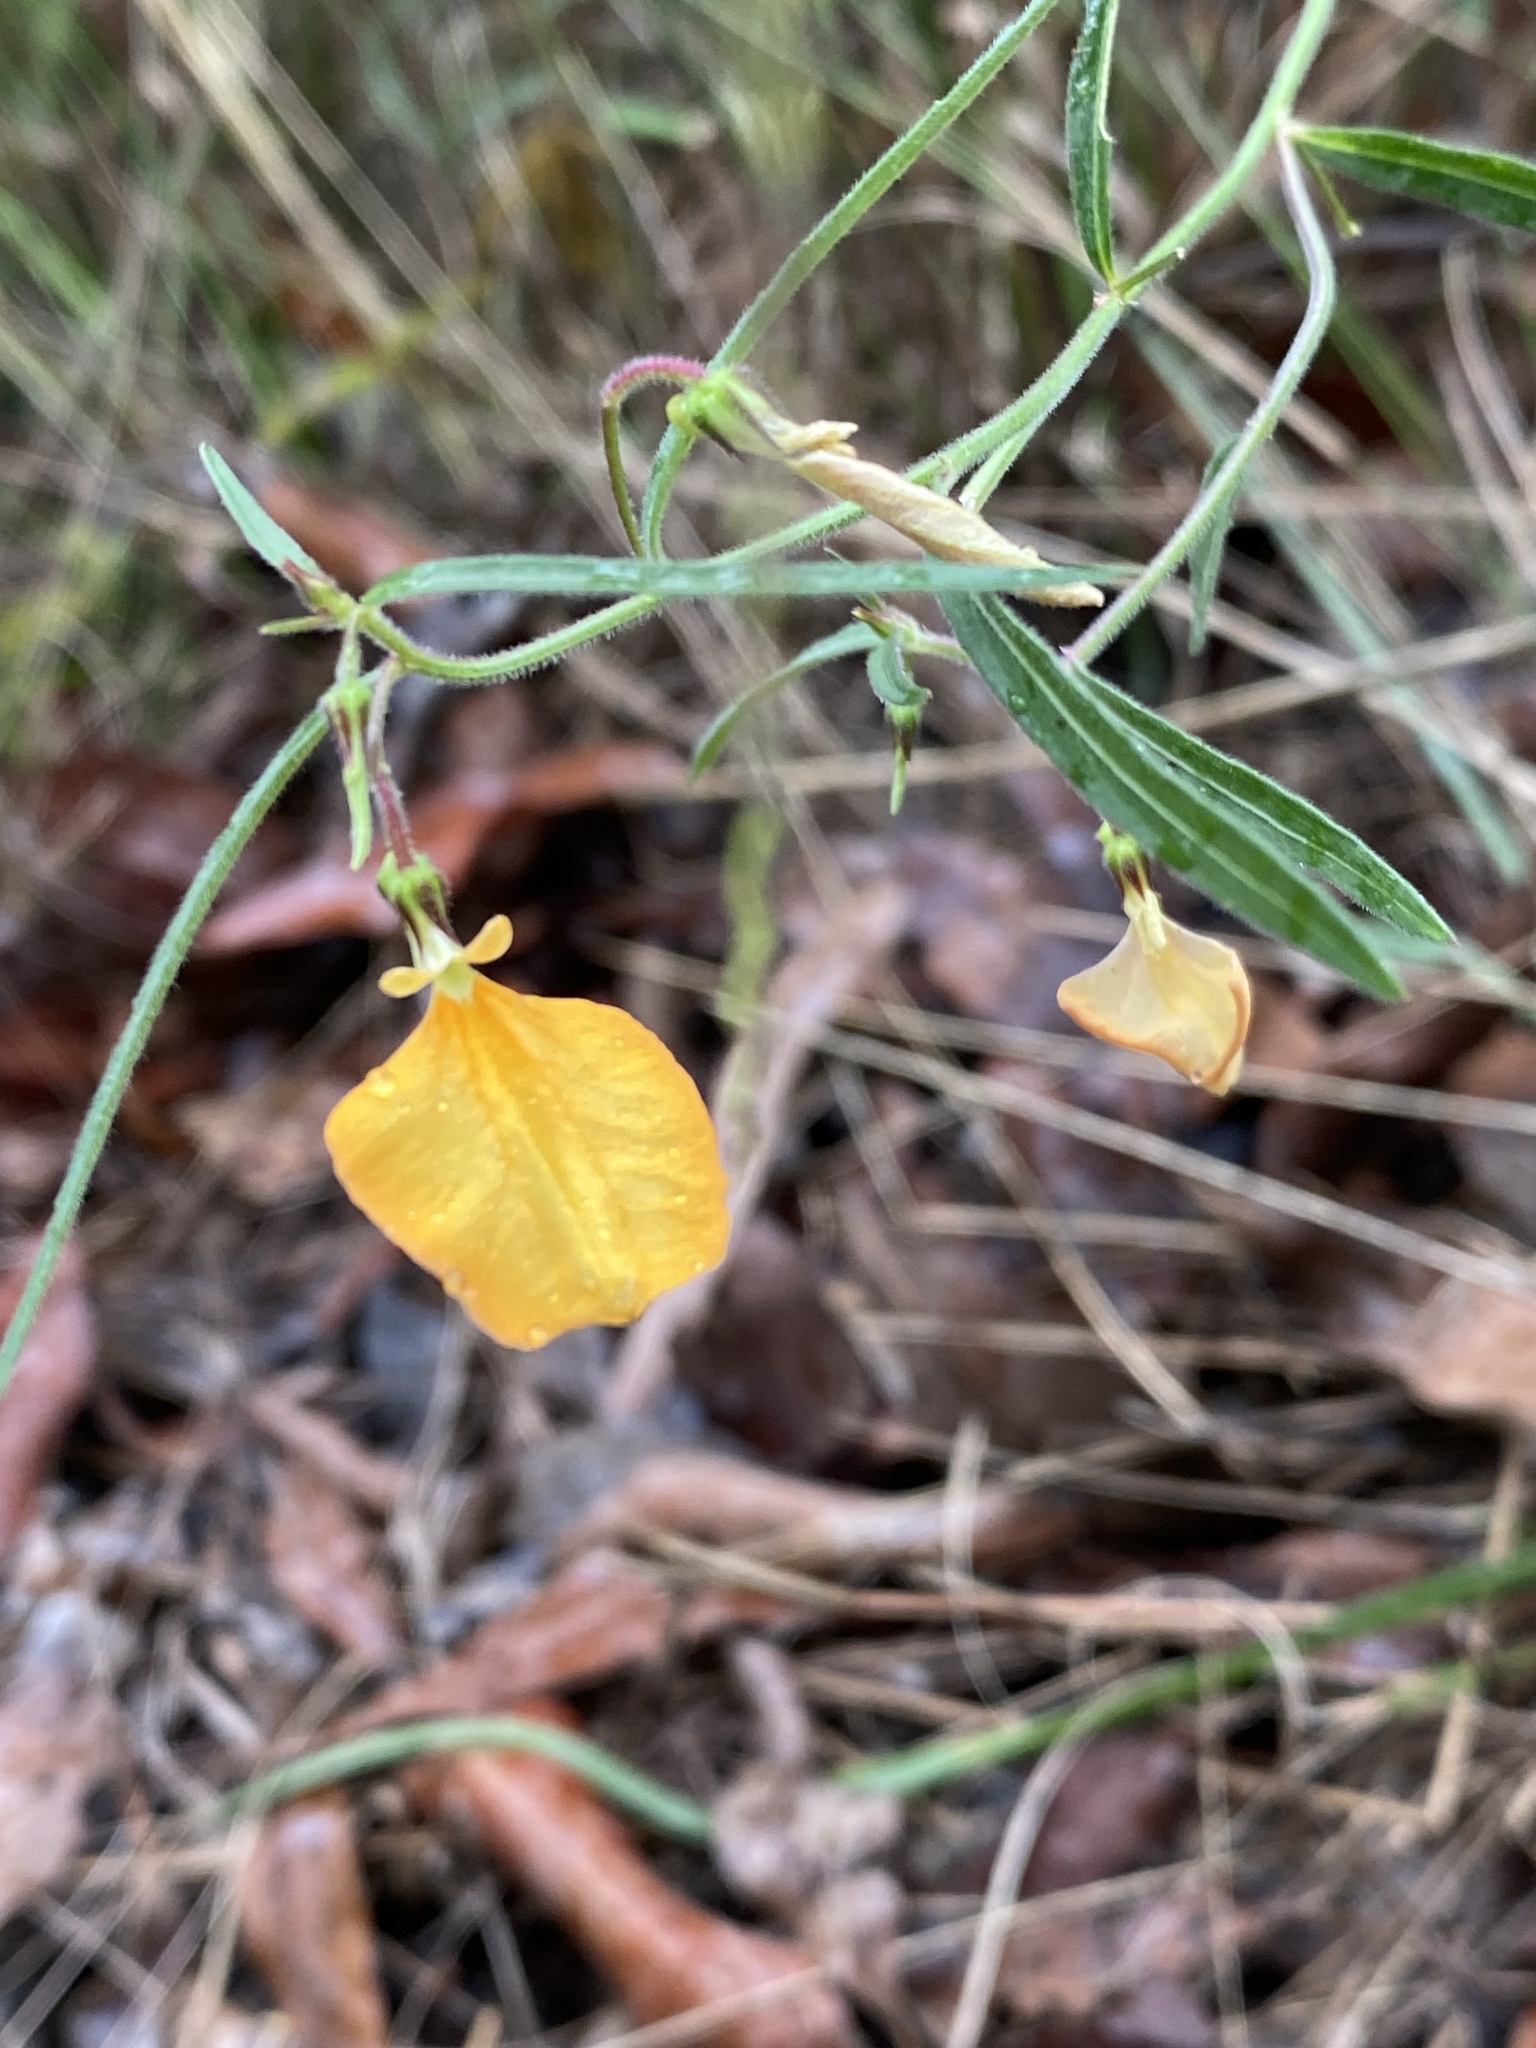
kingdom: Plantae
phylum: Tracheophyta
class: Magnoliopsida
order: Malpighiales
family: Violaceae
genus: Pigea
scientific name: Pigea stellarioides
